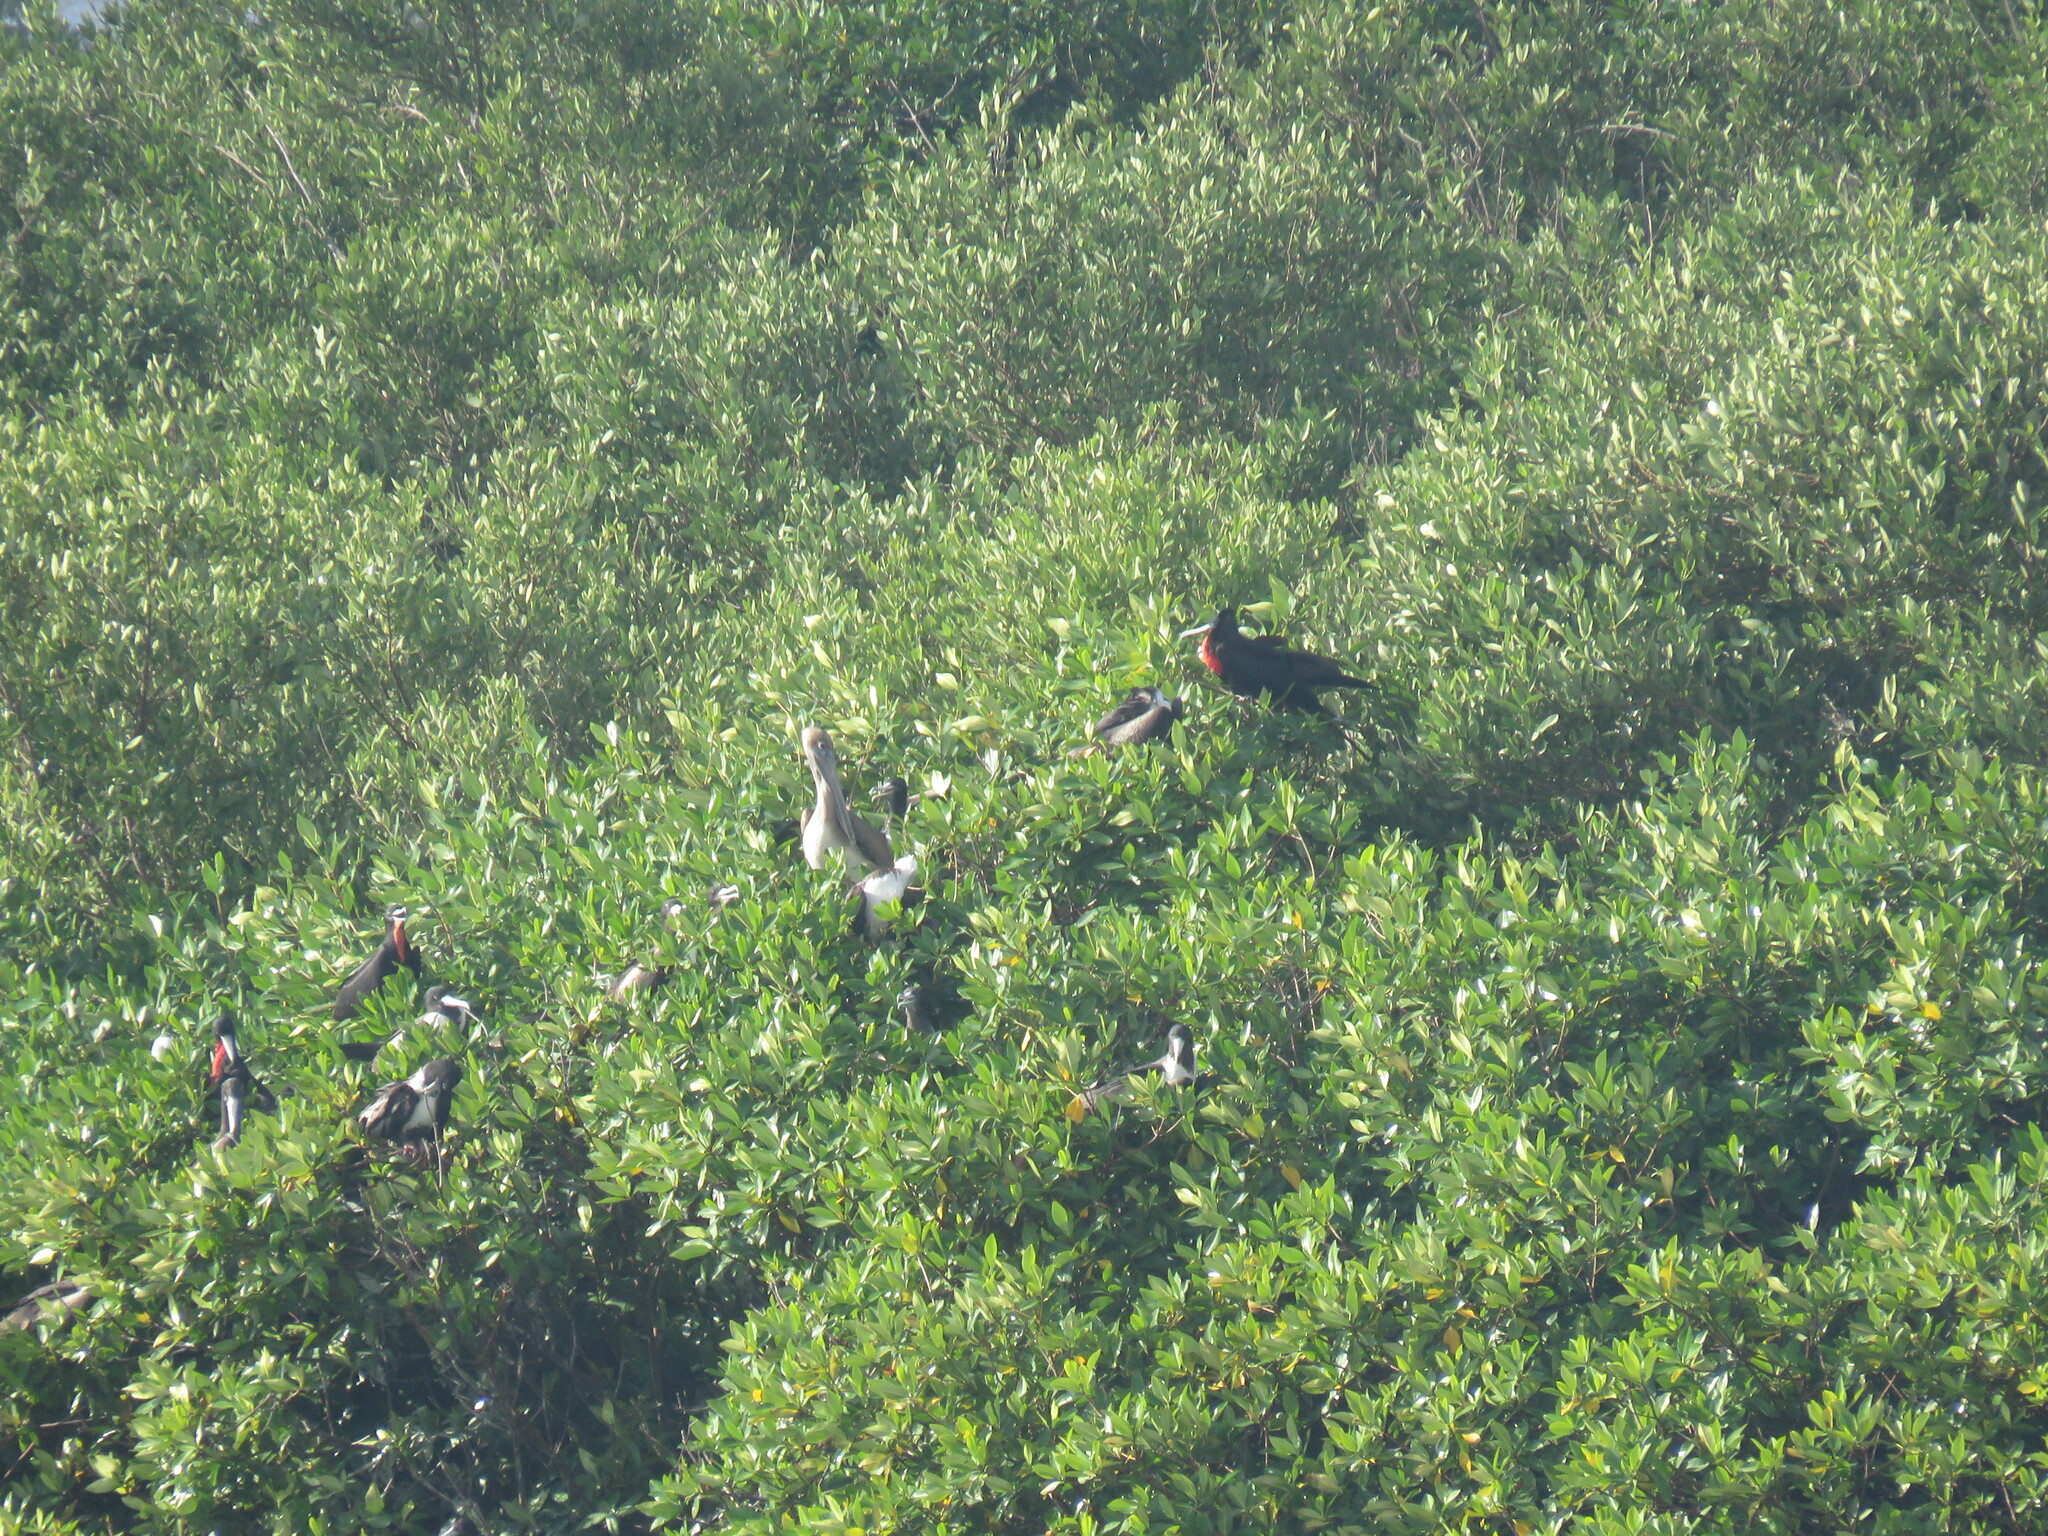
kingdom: Animalia
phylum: Chordata
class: Aves
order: Suliformes
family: Fregatidae
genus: Fregata
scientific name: Fregata magnificens
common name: Magnificent frigatebird
